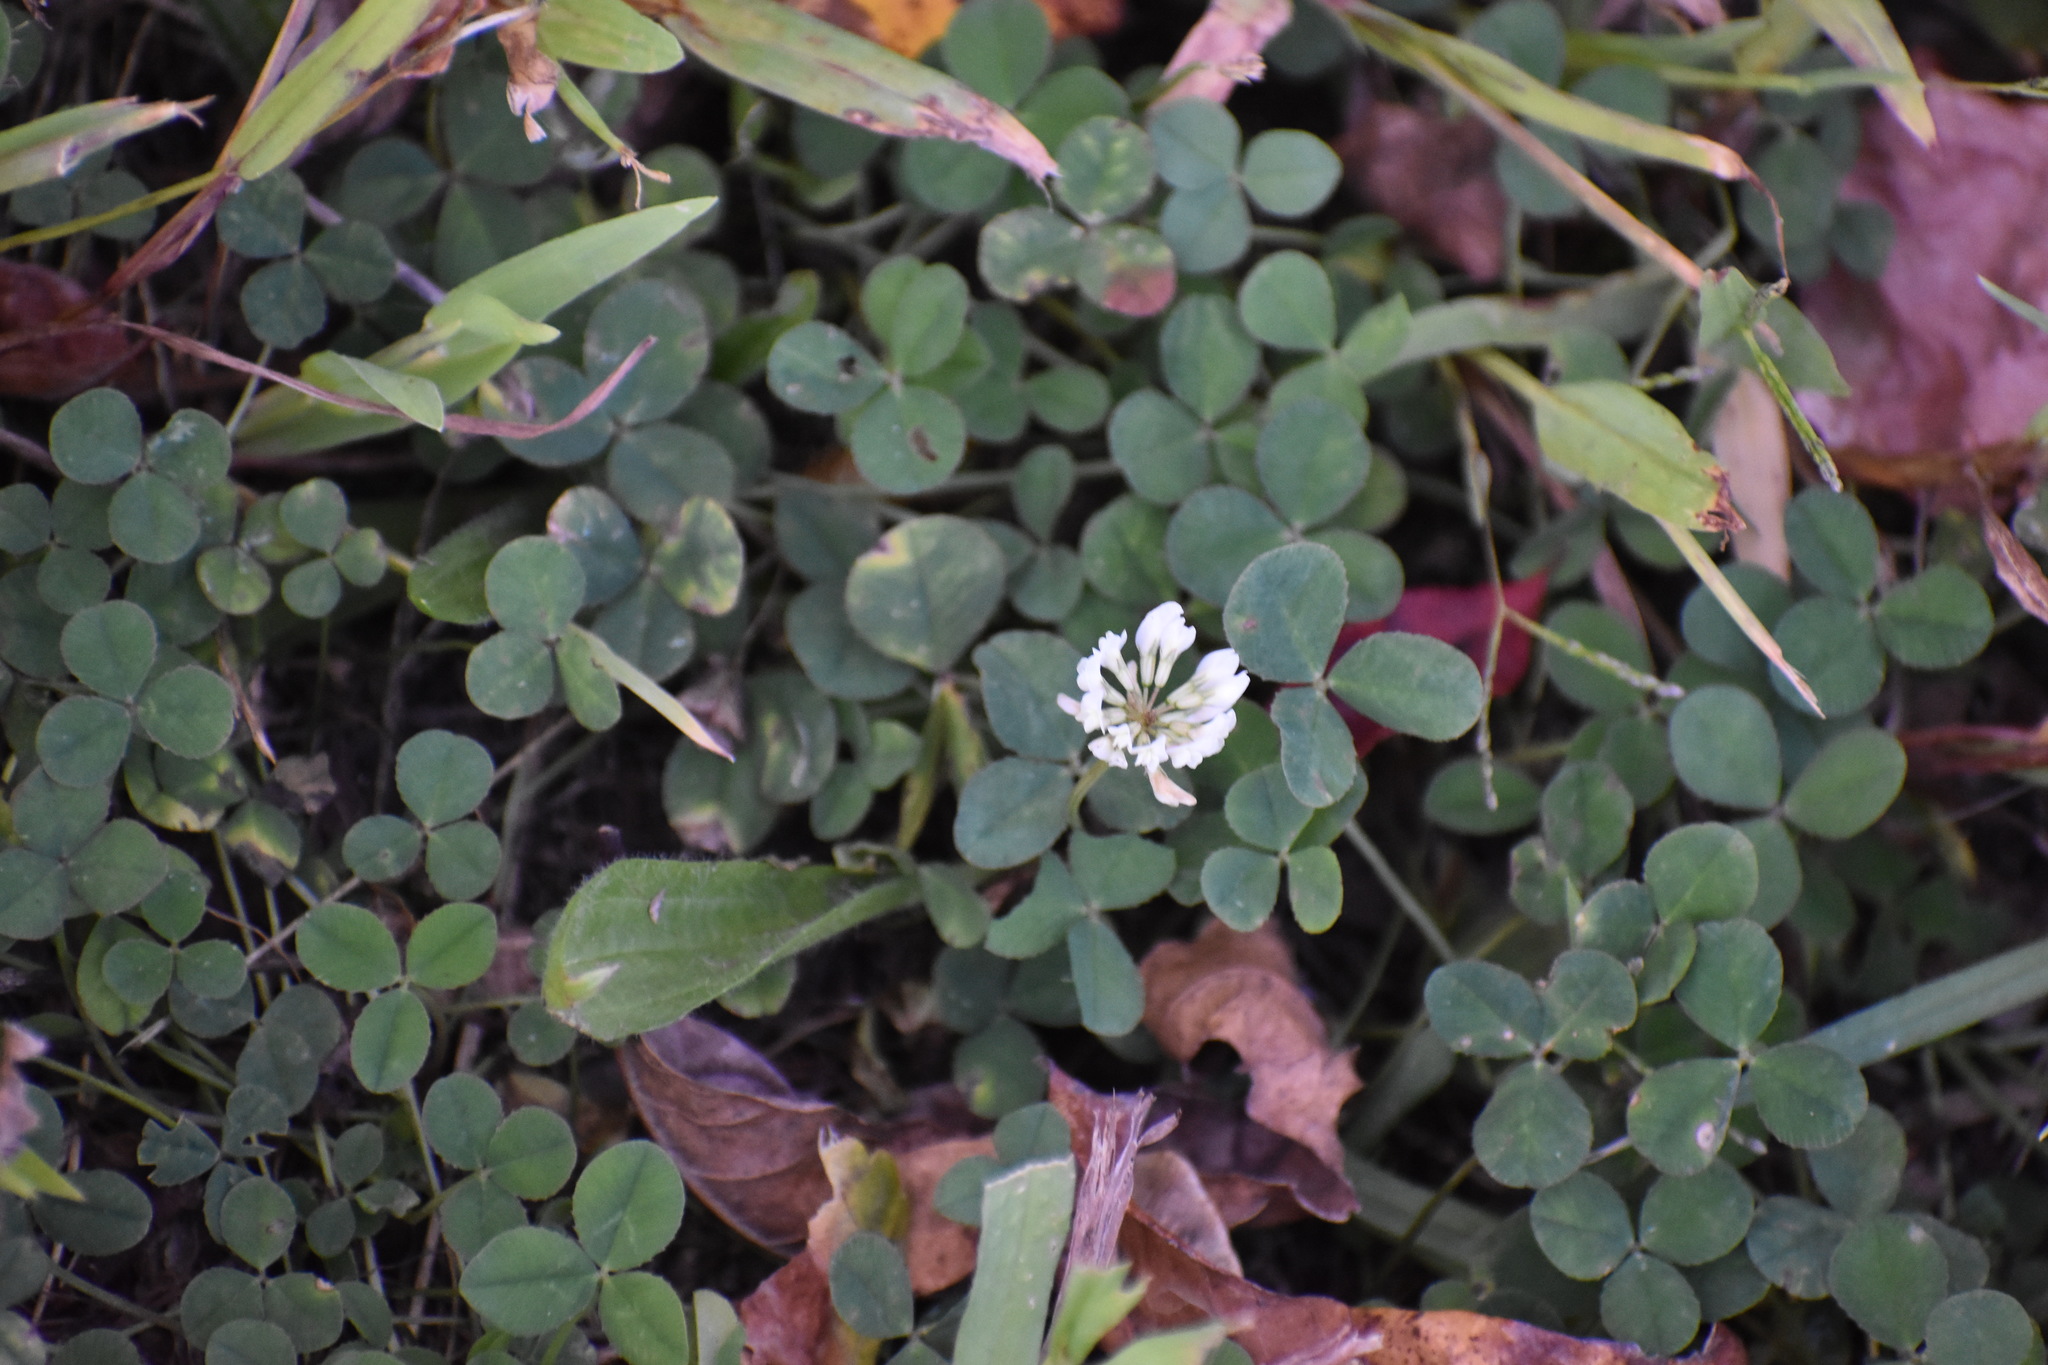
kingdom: Plantae
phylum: Tracheophyta
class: Magnoliopsida
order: Fabales
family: Fabaceae
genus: Trifolium
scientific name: Trifolium repens
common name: White clover
